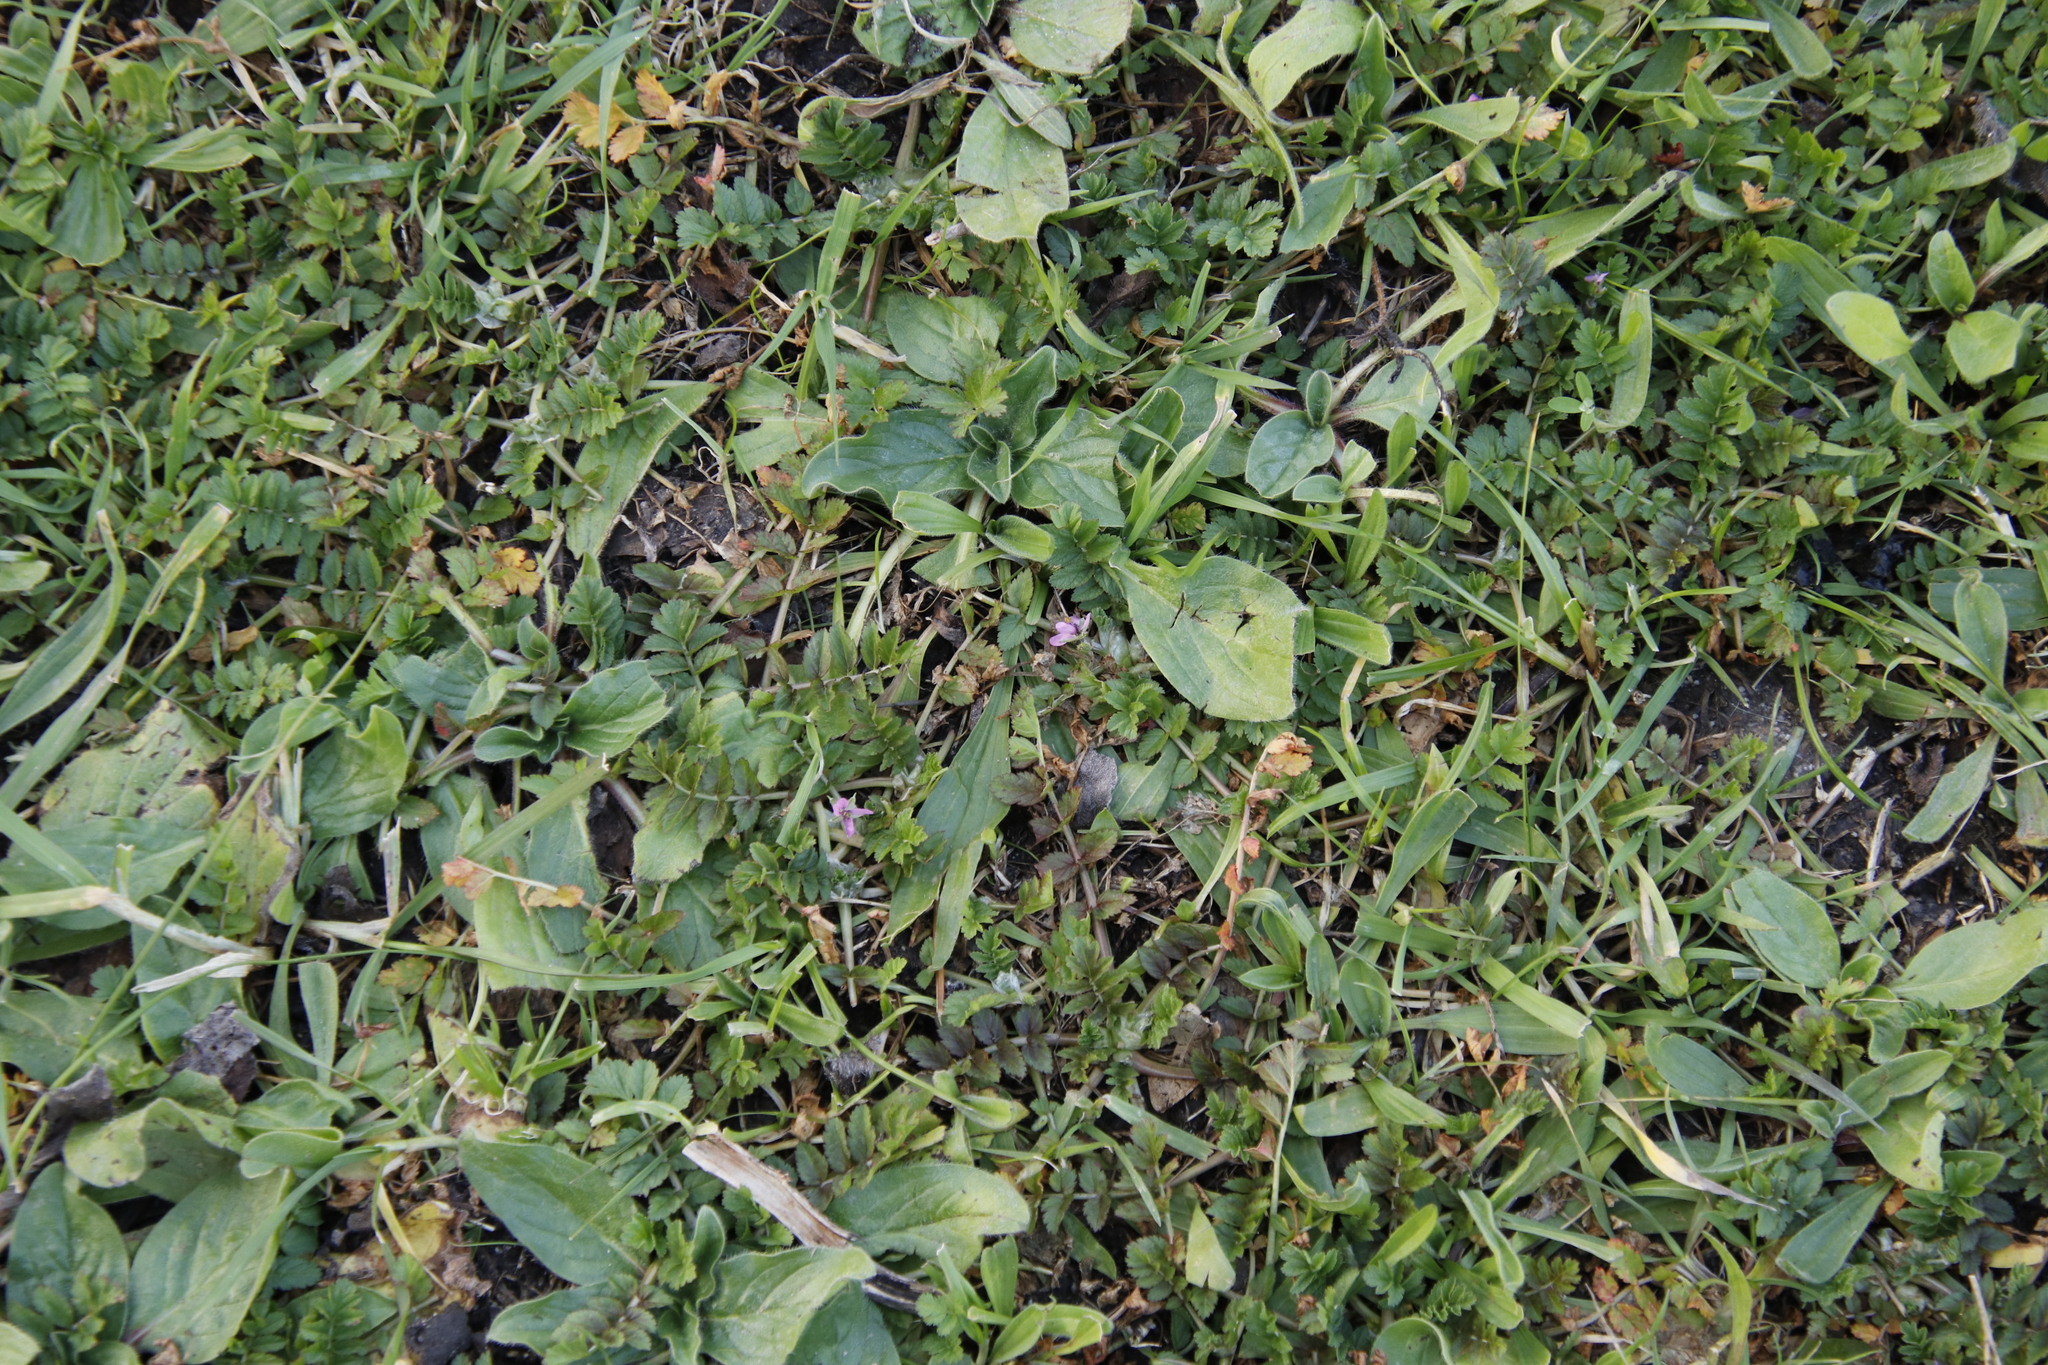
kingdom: Plantae
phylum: Tracheophyta
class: Magnoliopsida
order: Geraniales
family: Geraniaceae
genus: Erodium
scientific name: Erodium moschatum
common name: Musk stork's-bill
